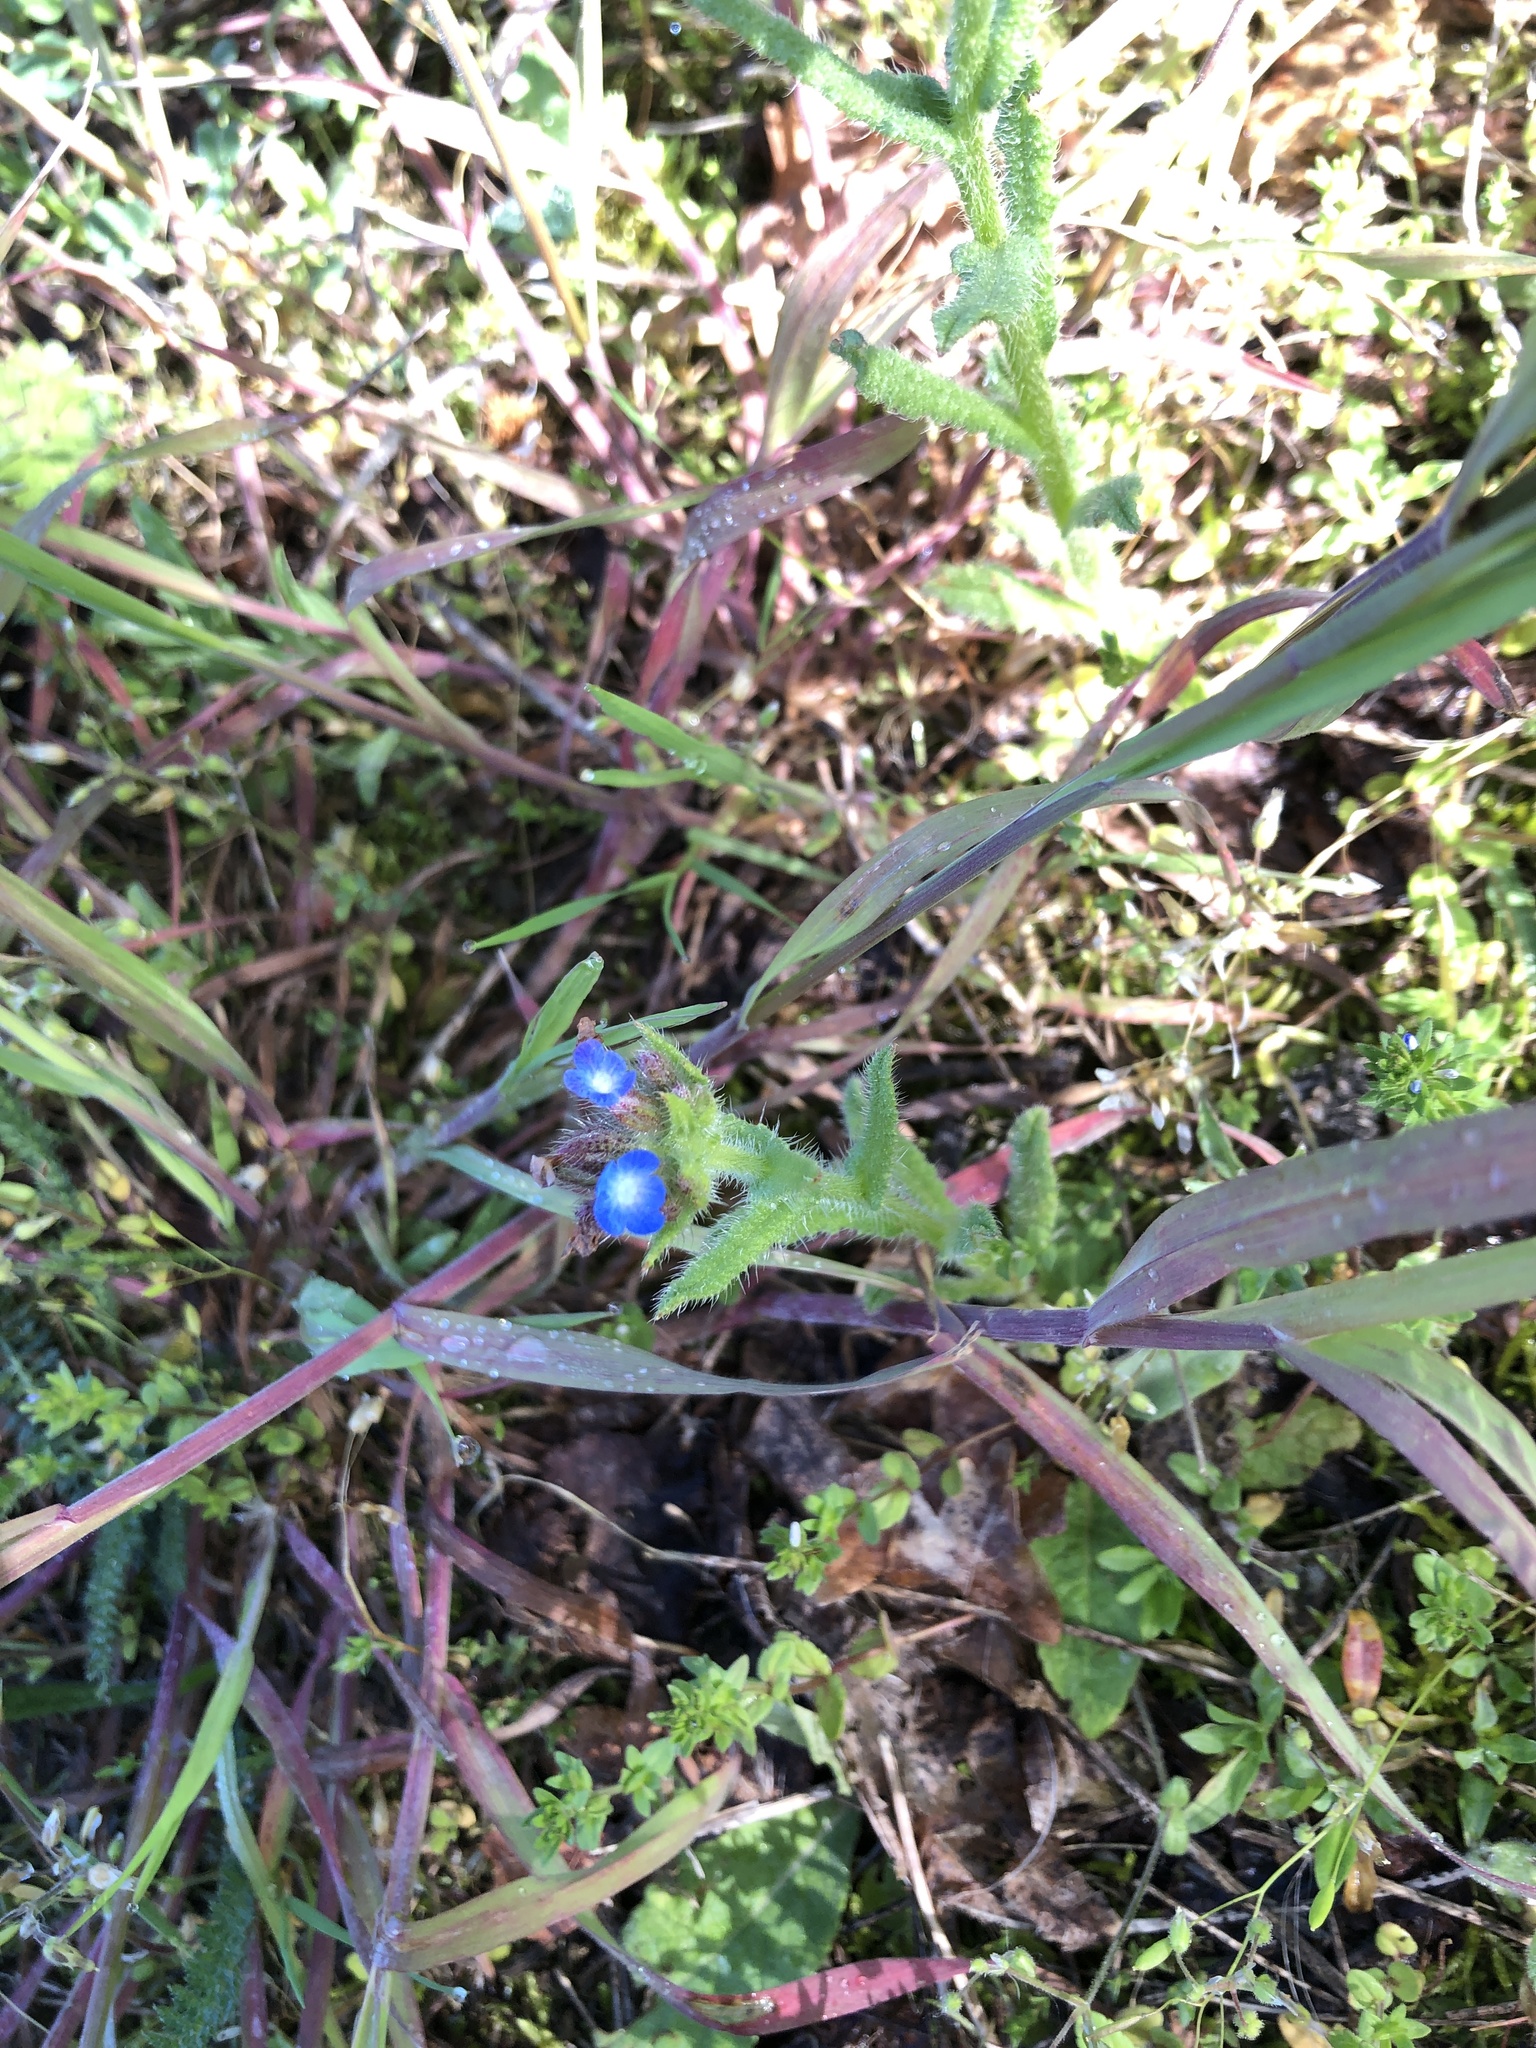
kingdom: Plantae
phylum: Tracheophyta
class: Magnoliopsida
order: Boraginales
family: Boraginaceae
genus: Lycopsis
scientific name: Lycopsis arvensis
